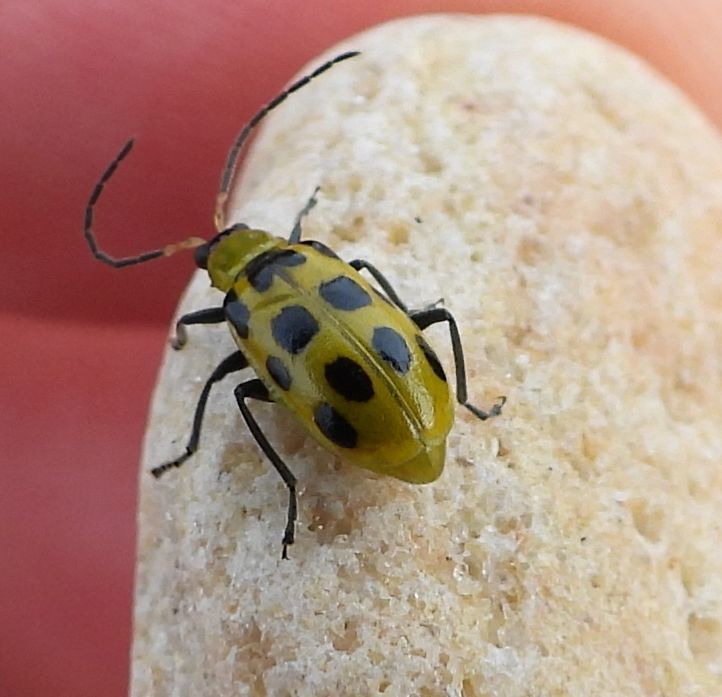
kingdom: Animalia
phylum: Arthropoda
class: Insecta
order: Coleoptera
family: Chrysomelidae
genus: Diabrotica
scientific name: Diabrotica undecimpunctata
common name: Spotted cucumber beetle
